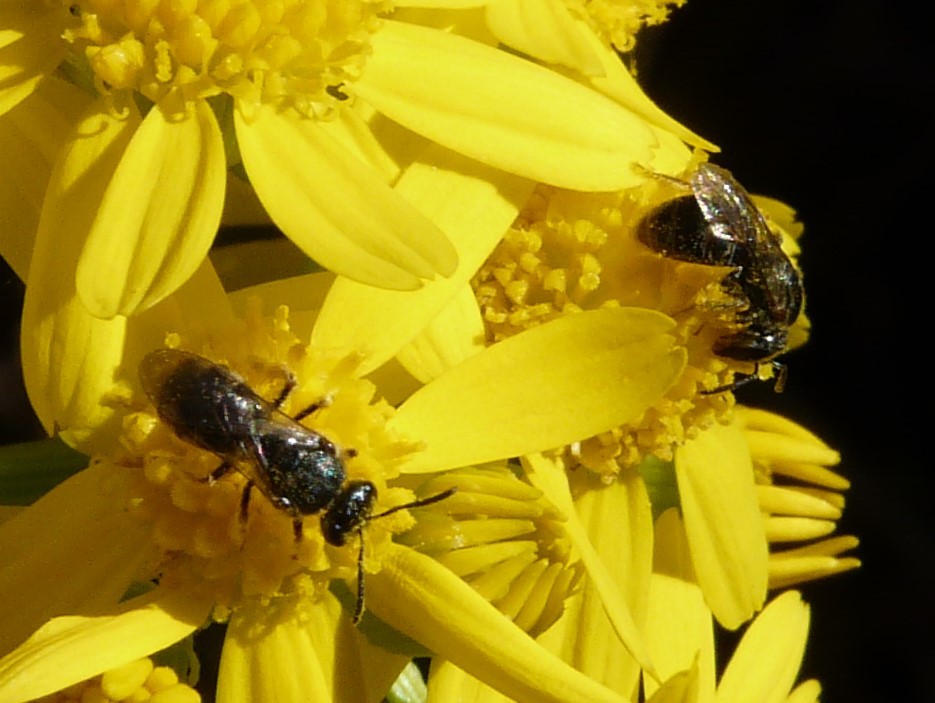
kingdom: Animalia
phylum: Arthropoda
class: Insecta
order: Hymenoptera
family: Halictidae
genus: Dialictus
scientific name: Dialictus
